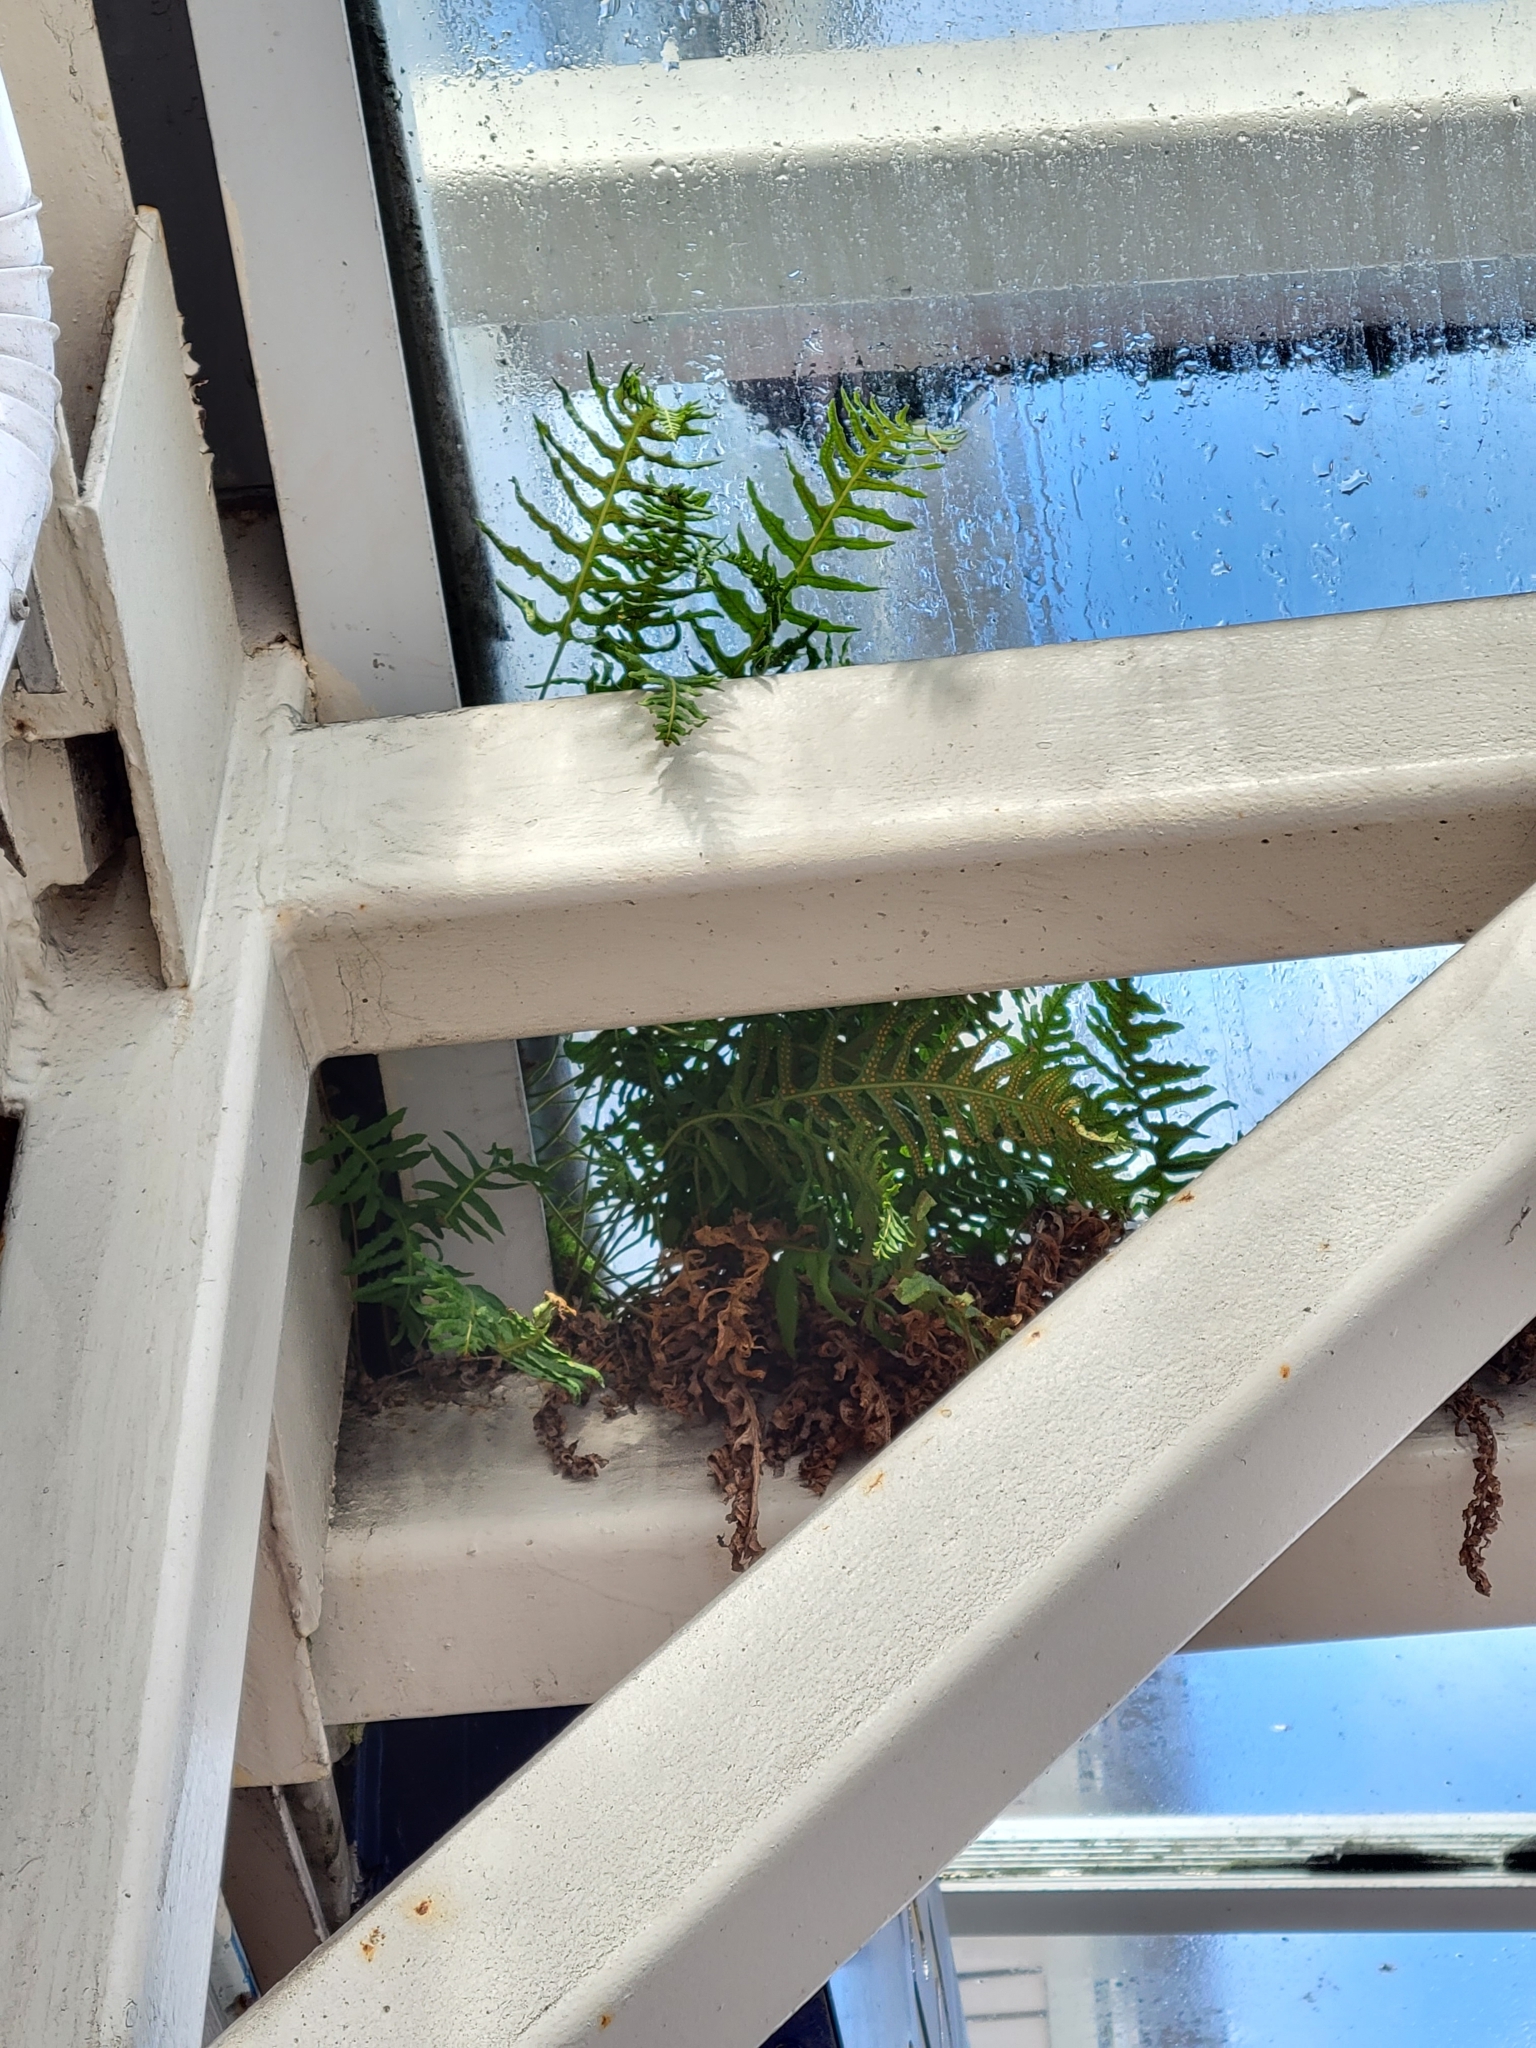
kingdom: Plantae
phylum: Tracheophyta
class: Polypodiopsida
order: Polypodiales
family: Polypodiaceae
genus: Polypodium
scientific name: Polypodium glycyrrhiza
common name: Licorice fern
